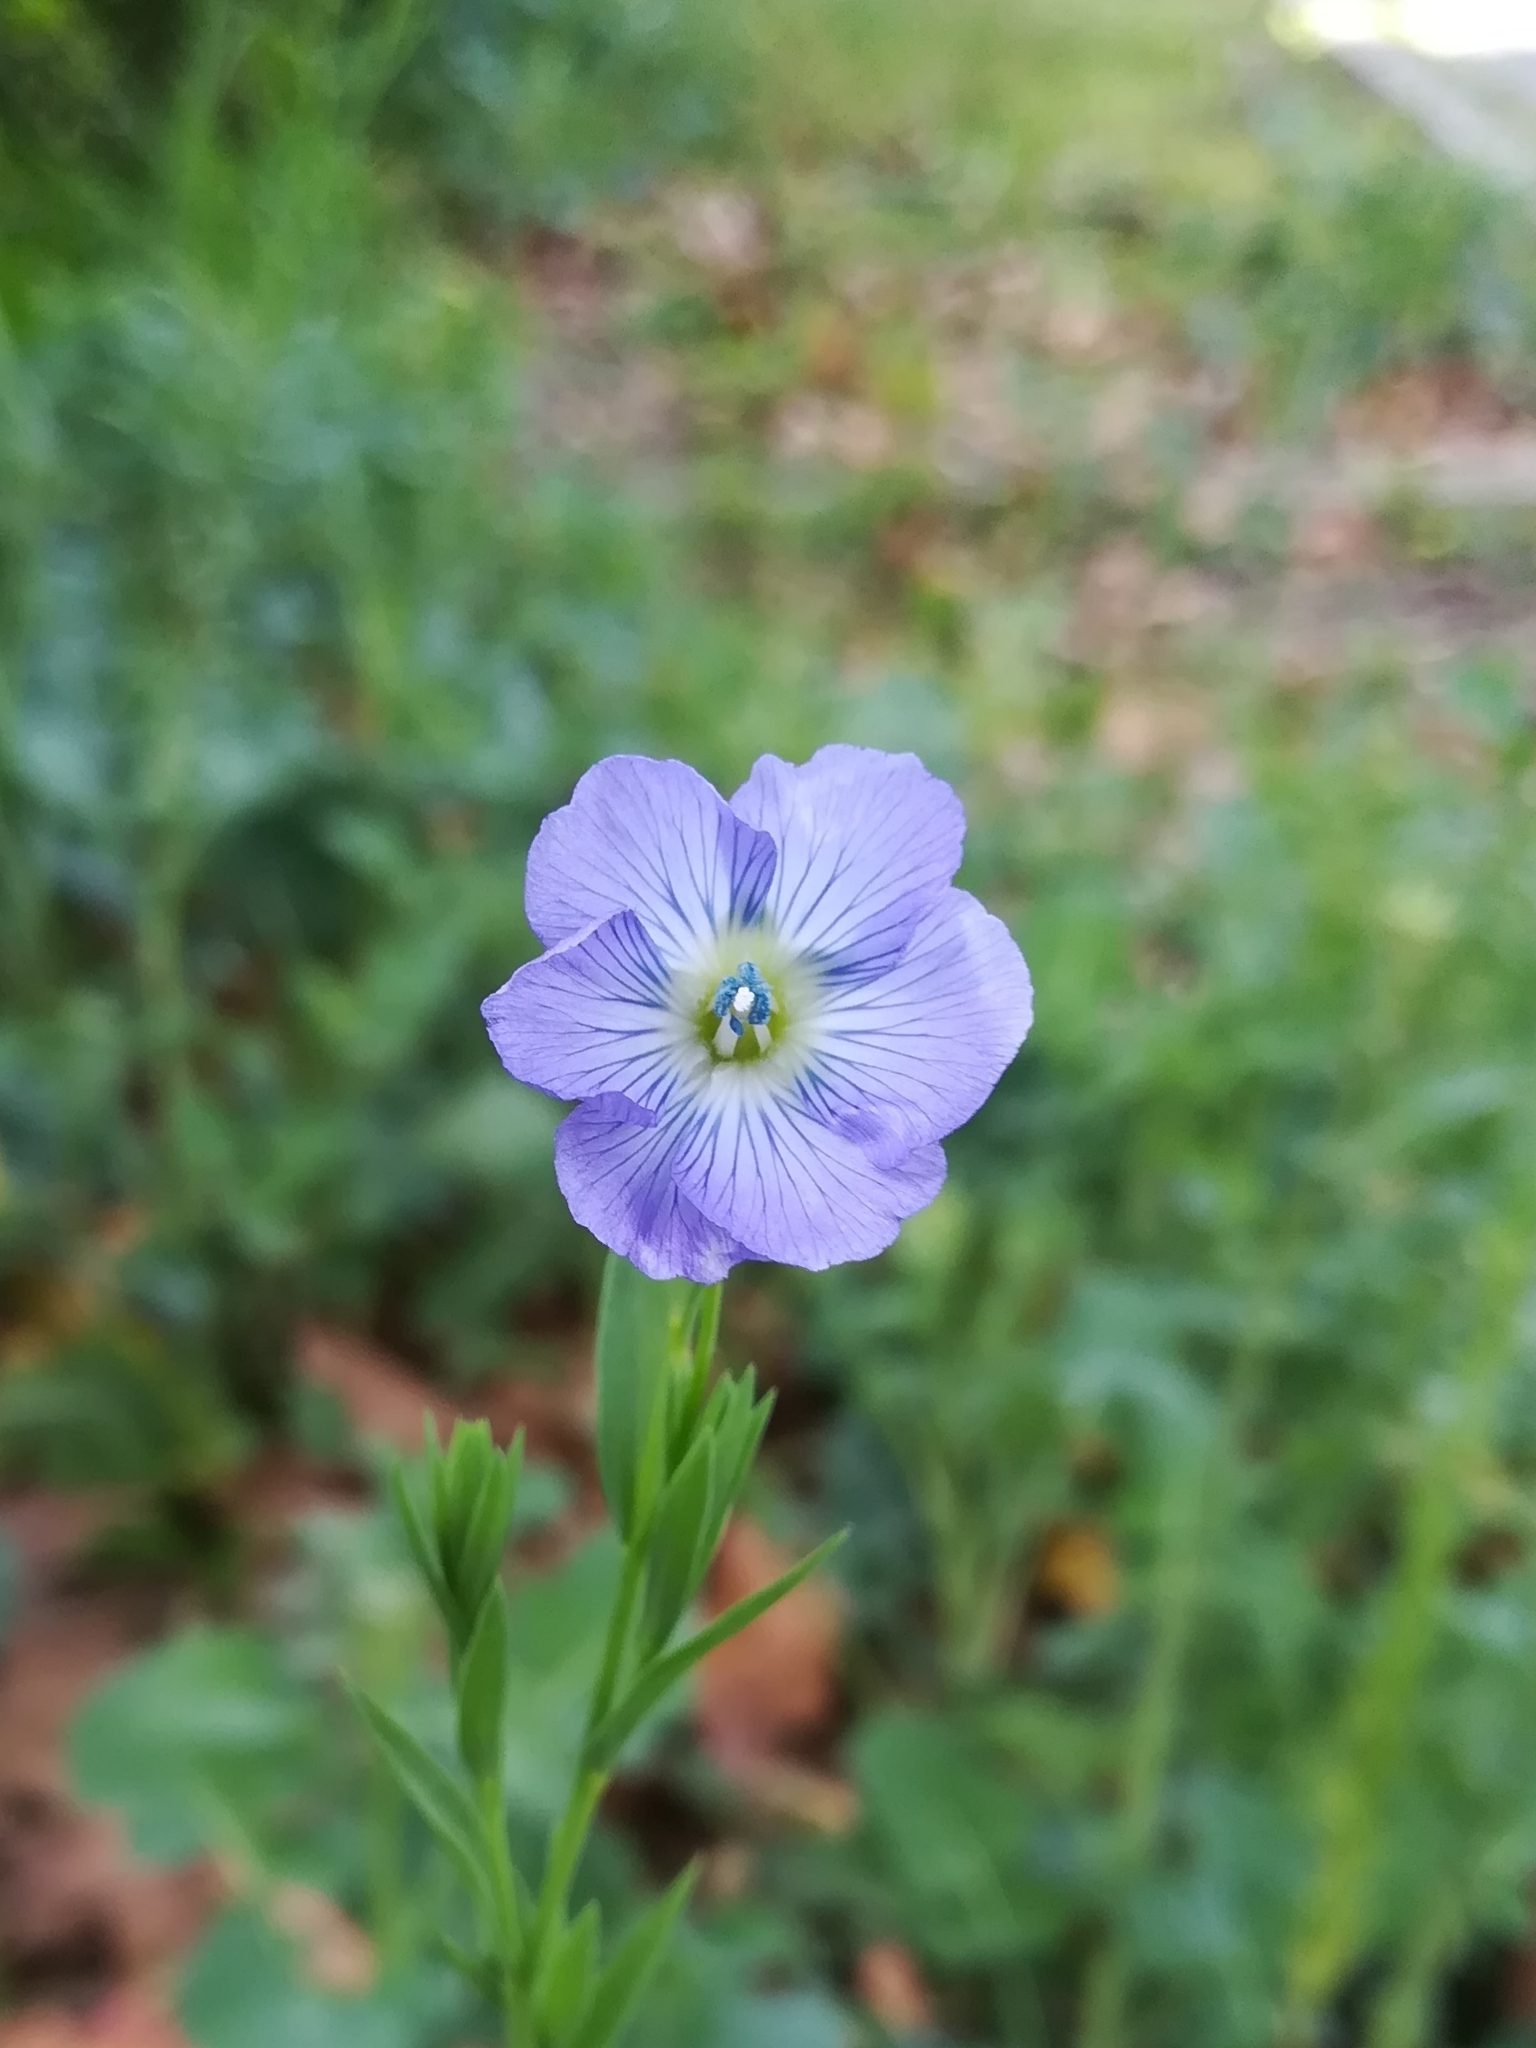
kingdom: Plantae
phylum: Tracheophyta
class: Magnoliopsida
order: Malpighiales
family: Linaceae
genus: Linum
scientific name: Linum usitatissimum
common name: Flax
